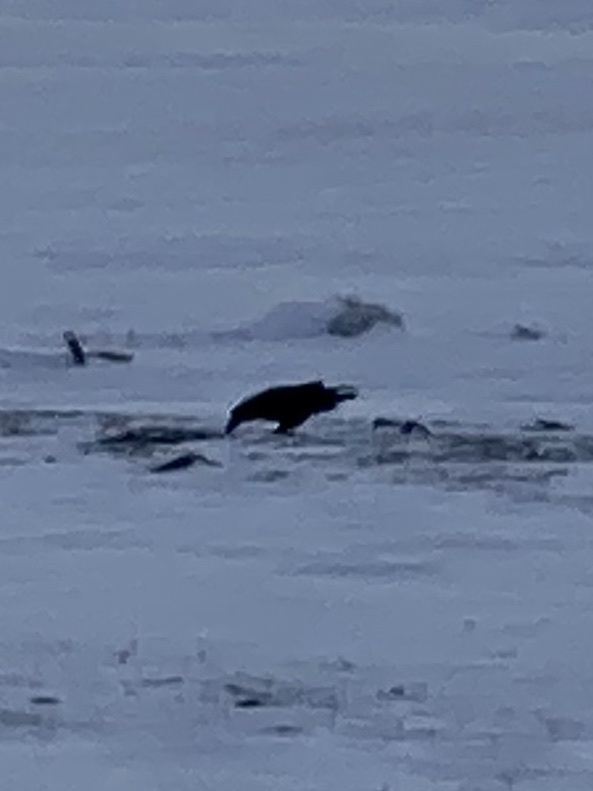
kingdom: Animalia
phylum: Chordata
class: Aves
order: Passeriformes
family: Corvidae
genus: Corvus
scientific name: Corvus corax
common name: Common raven
